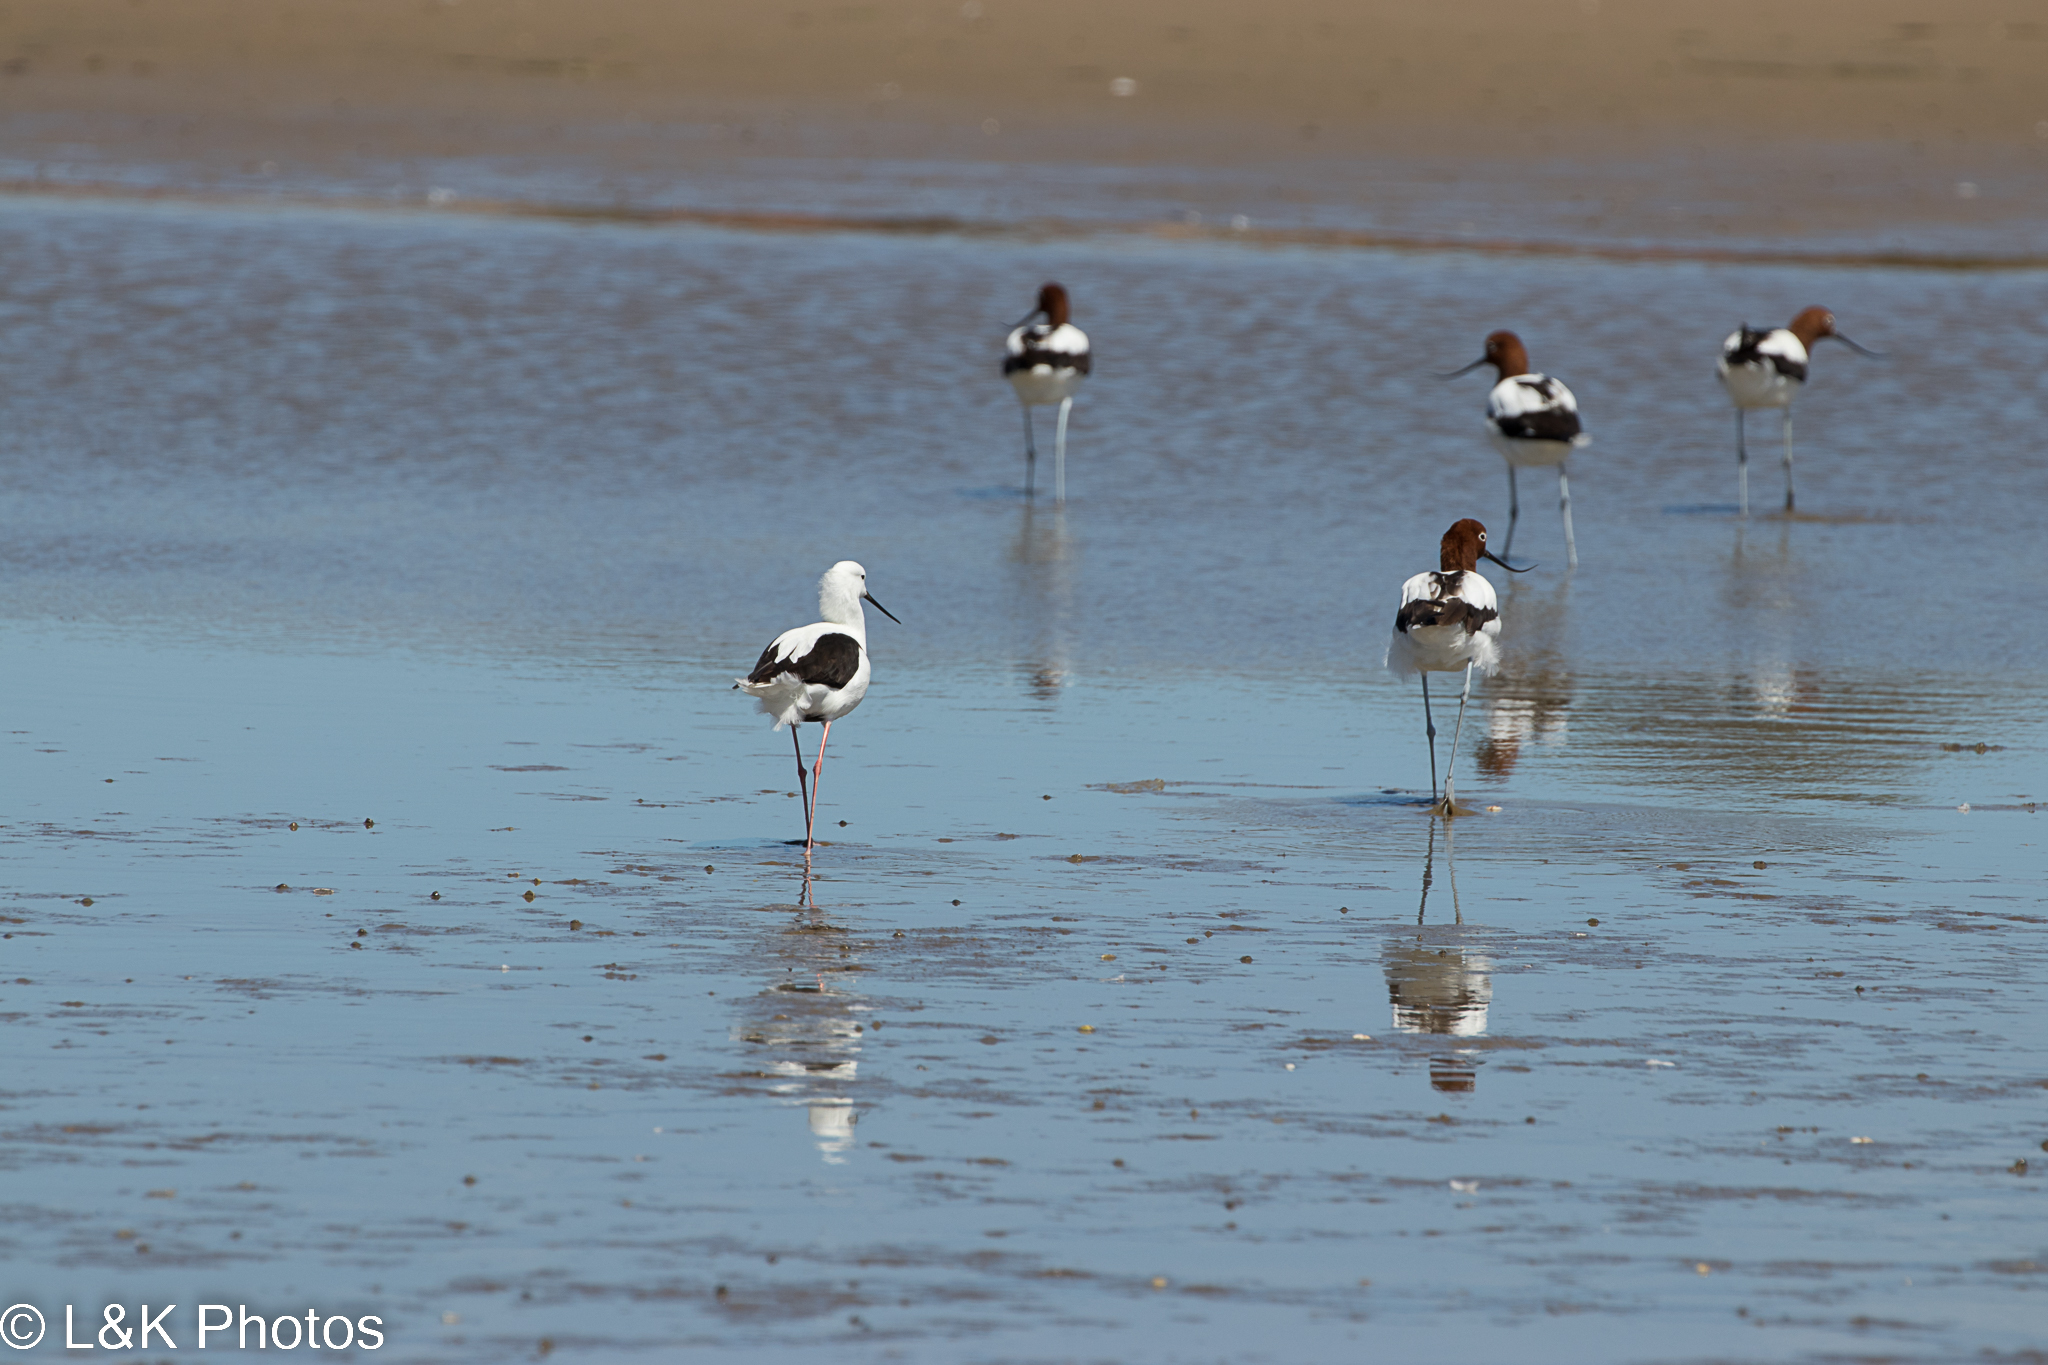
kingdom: Animalia
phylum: Chordata
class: Aves
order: Charadriiformes
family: Recurvirostridae
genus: Himantopus
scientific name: Himantopus leucocephalus
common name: White-headed stilt
